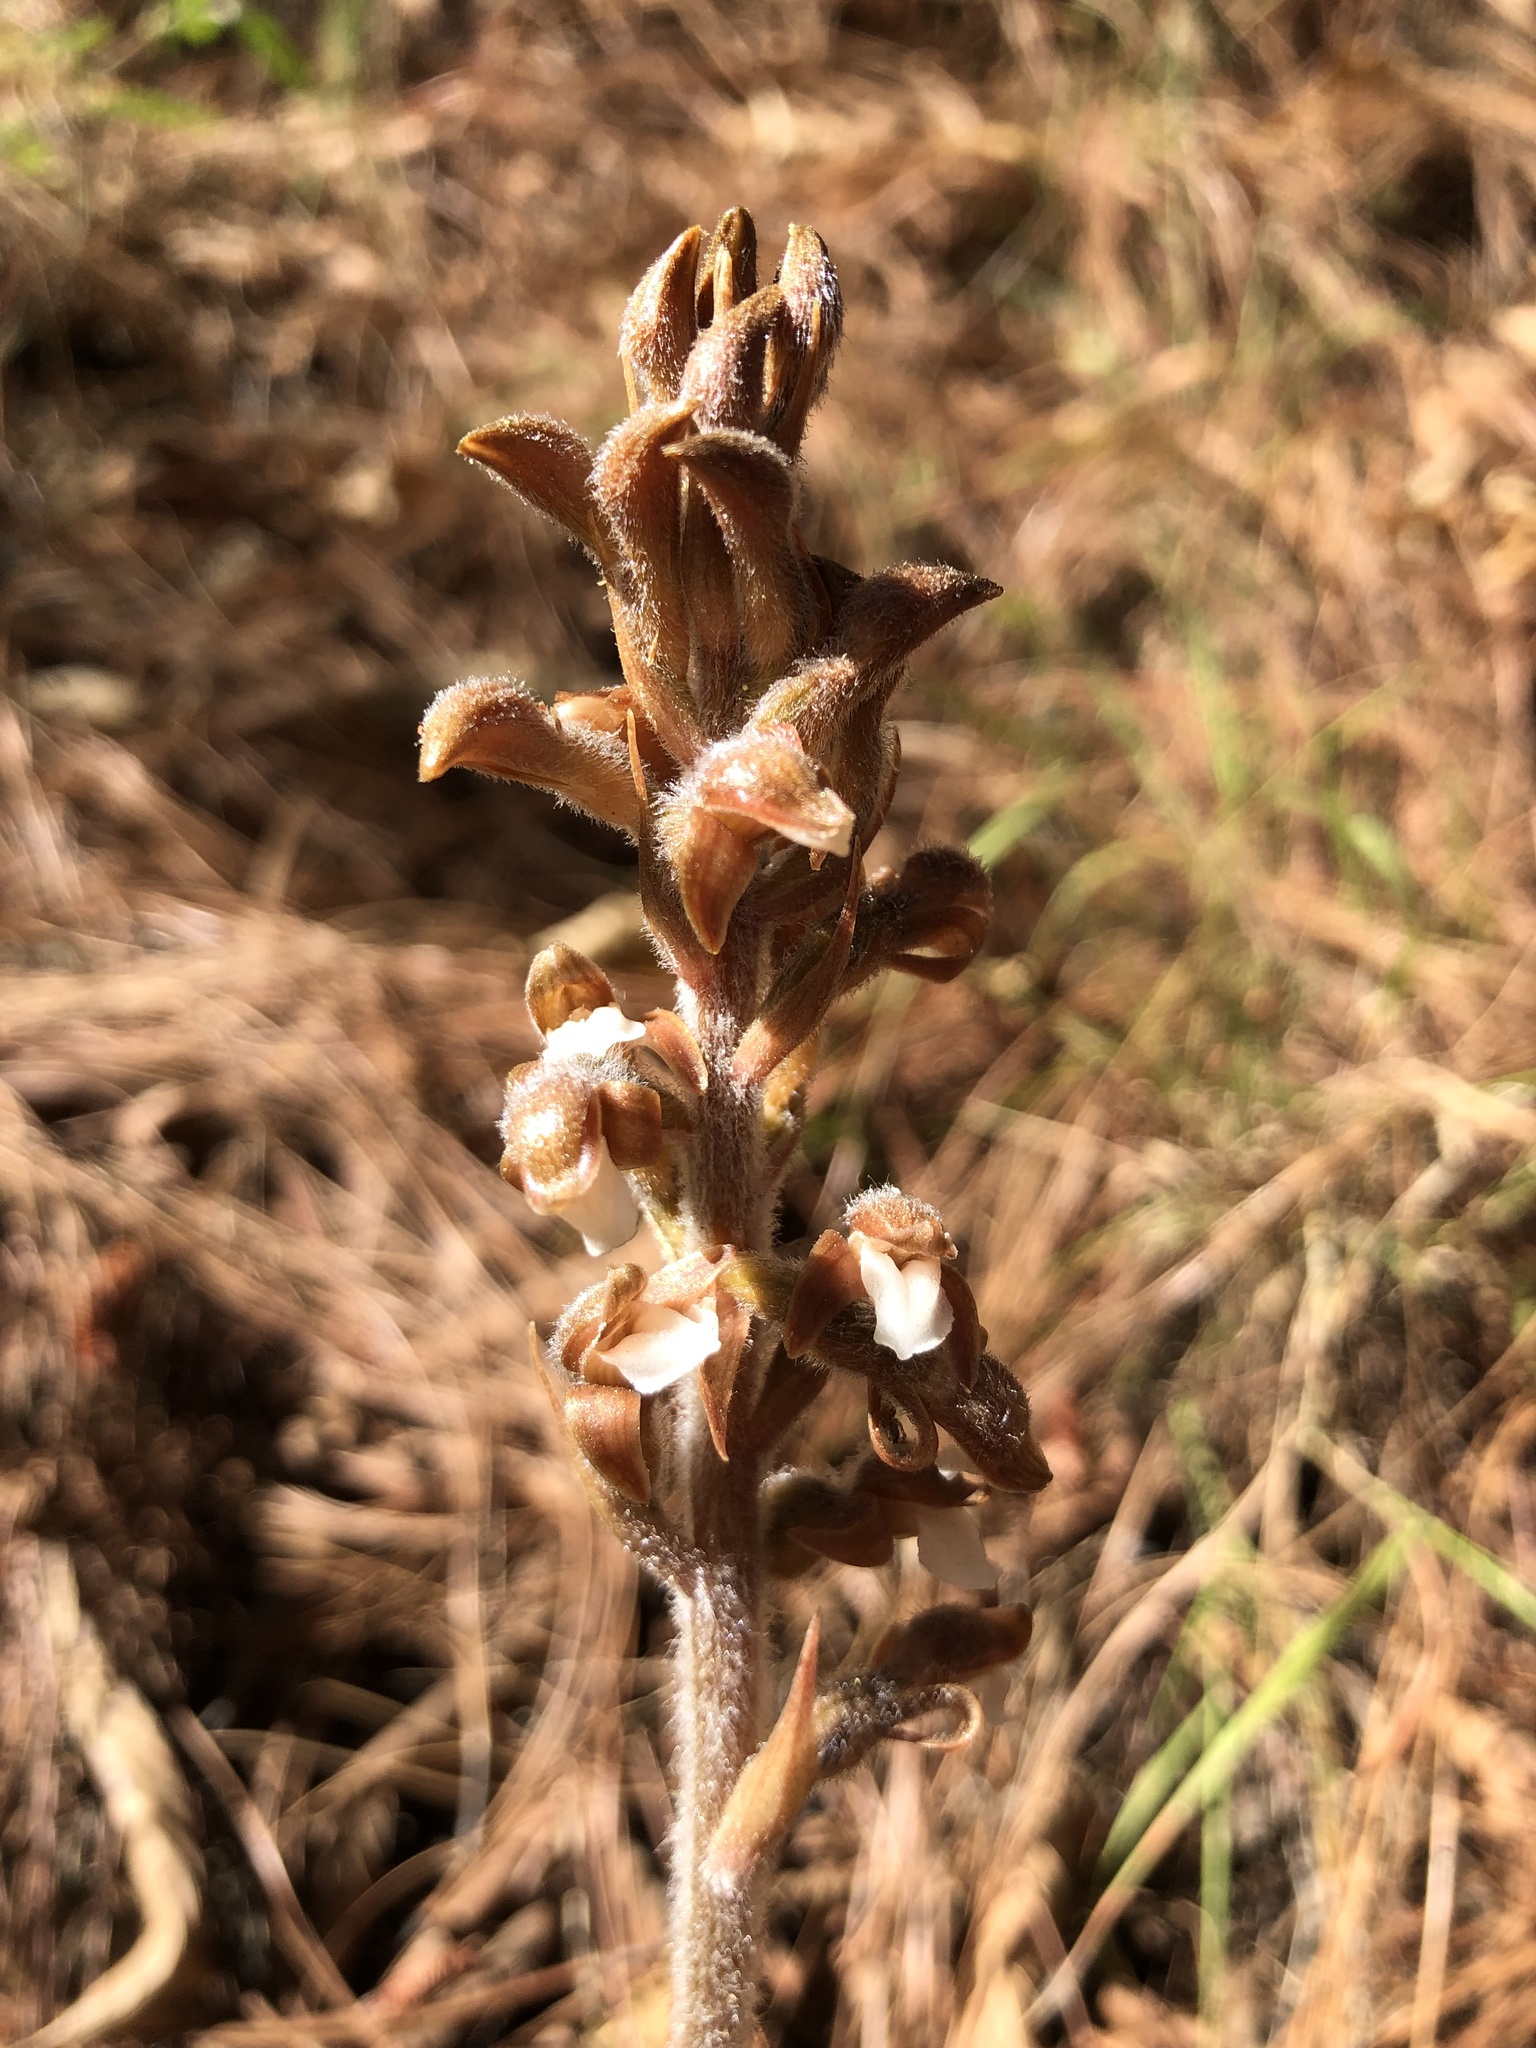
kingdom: Plantae
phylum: Tracheophyta
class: Liliopsida
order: Asparagales
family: Orchidaceae
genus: Sarcoglottis
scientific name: Sarcoglottis schaffneri
